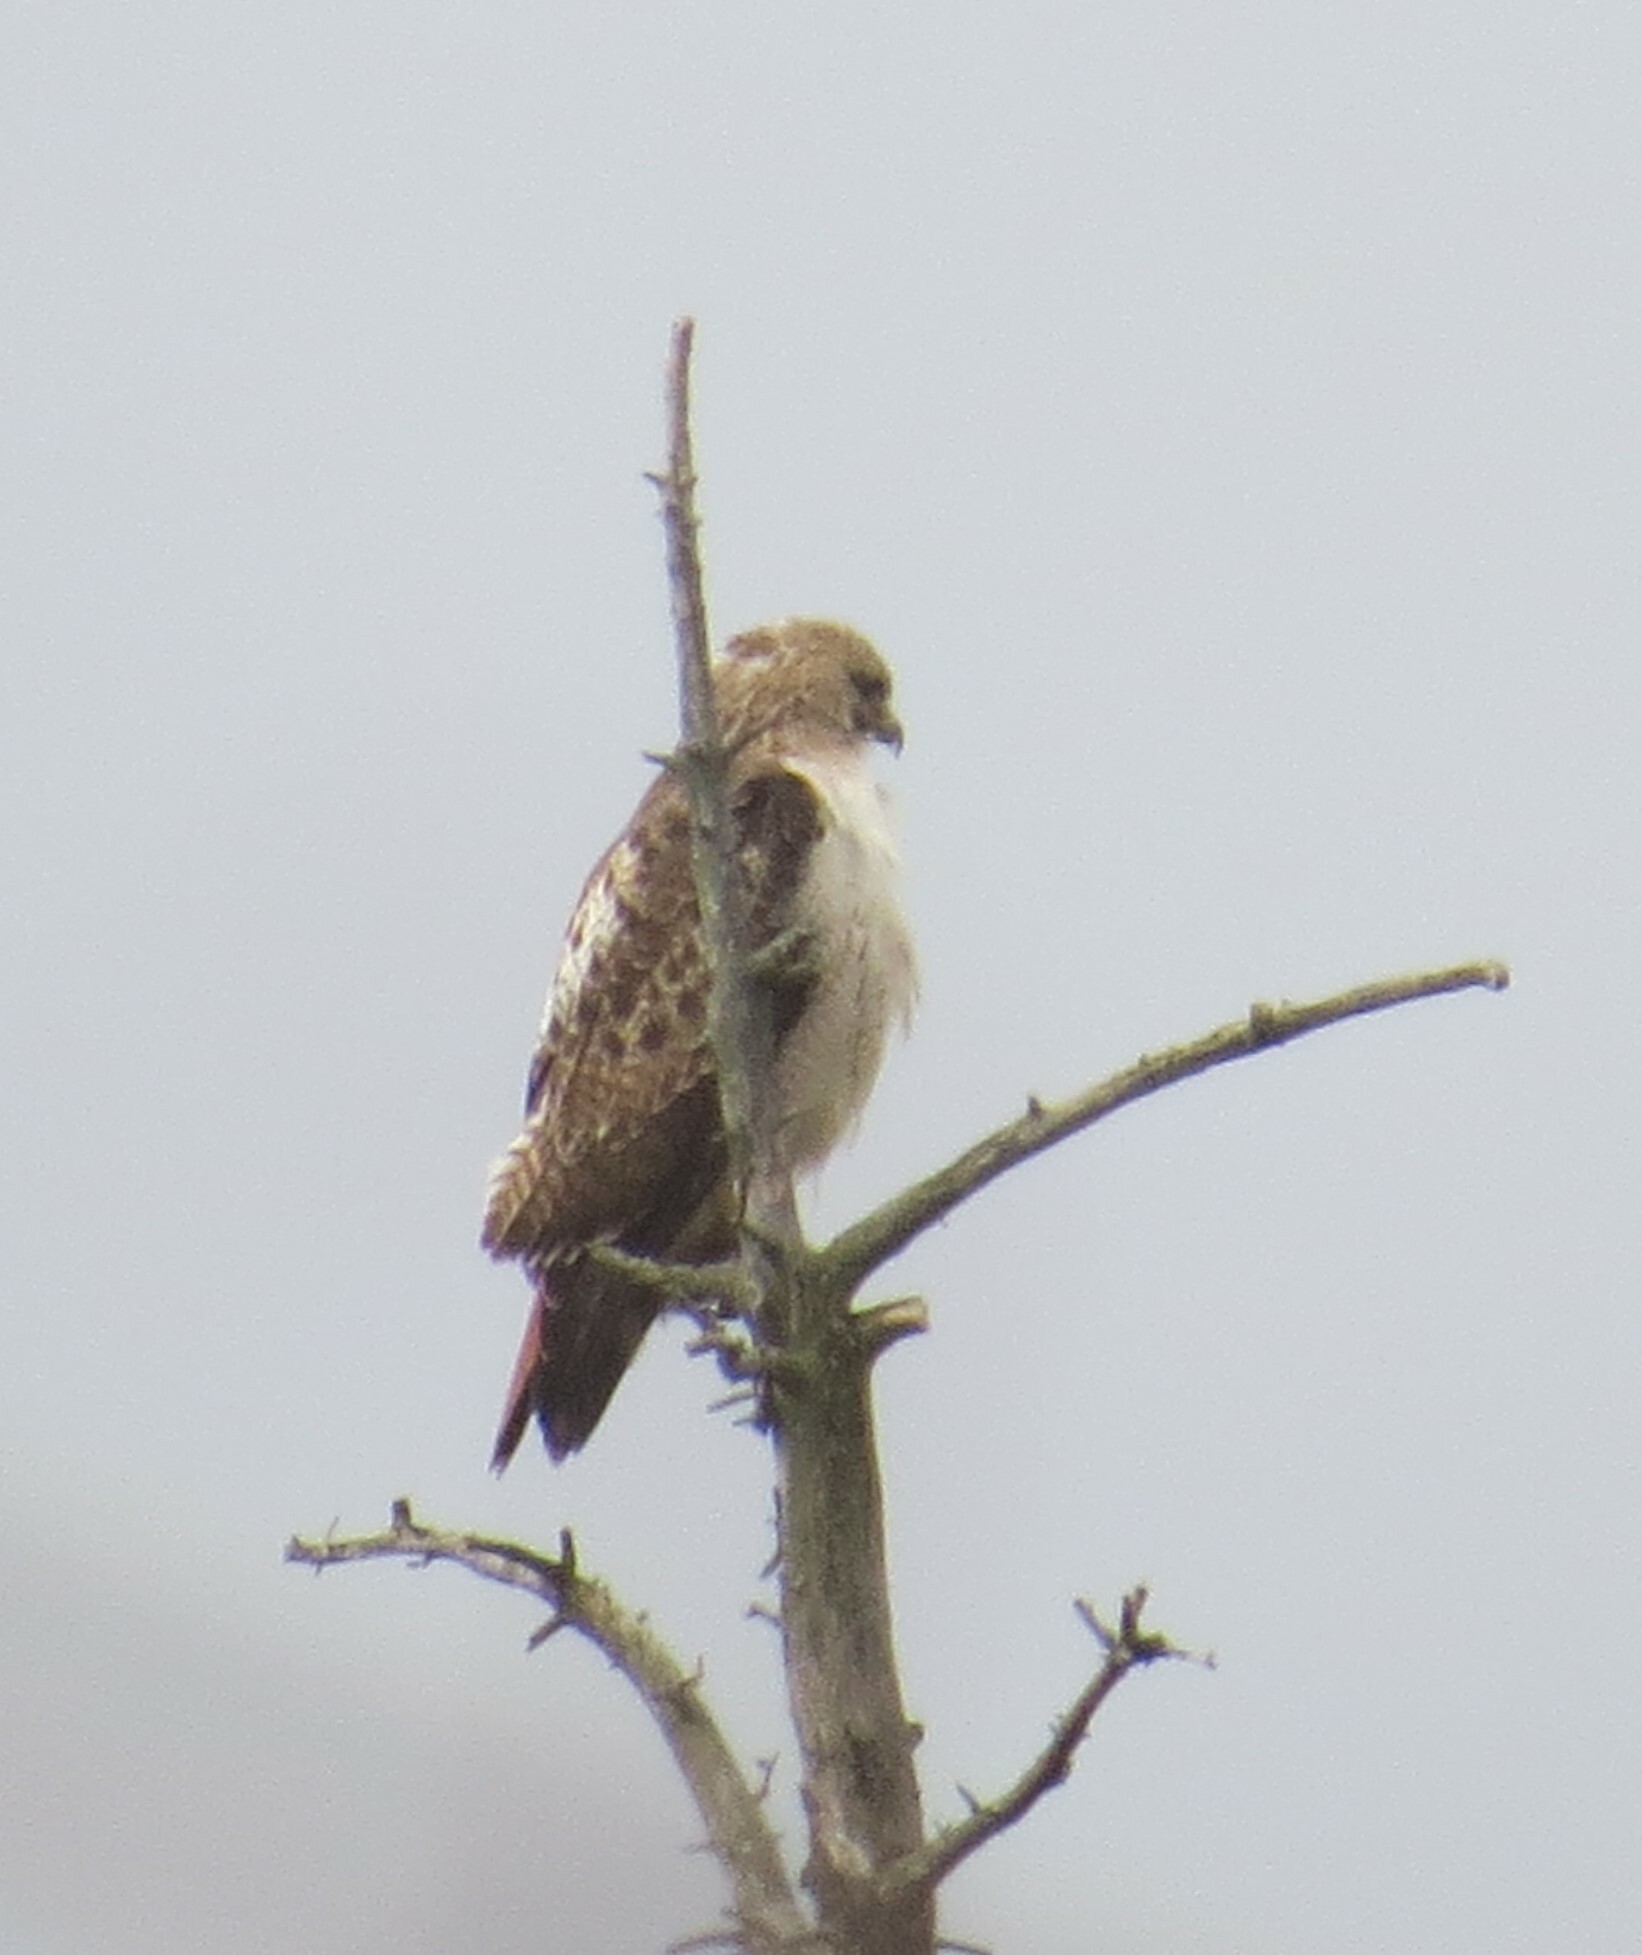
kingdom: Animalia
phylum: Chordata
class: Aves
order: Accipitriformes
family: Accipitridae
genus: Buteo
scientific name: Buteo jamaicensis
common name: Red-tailed hawk
